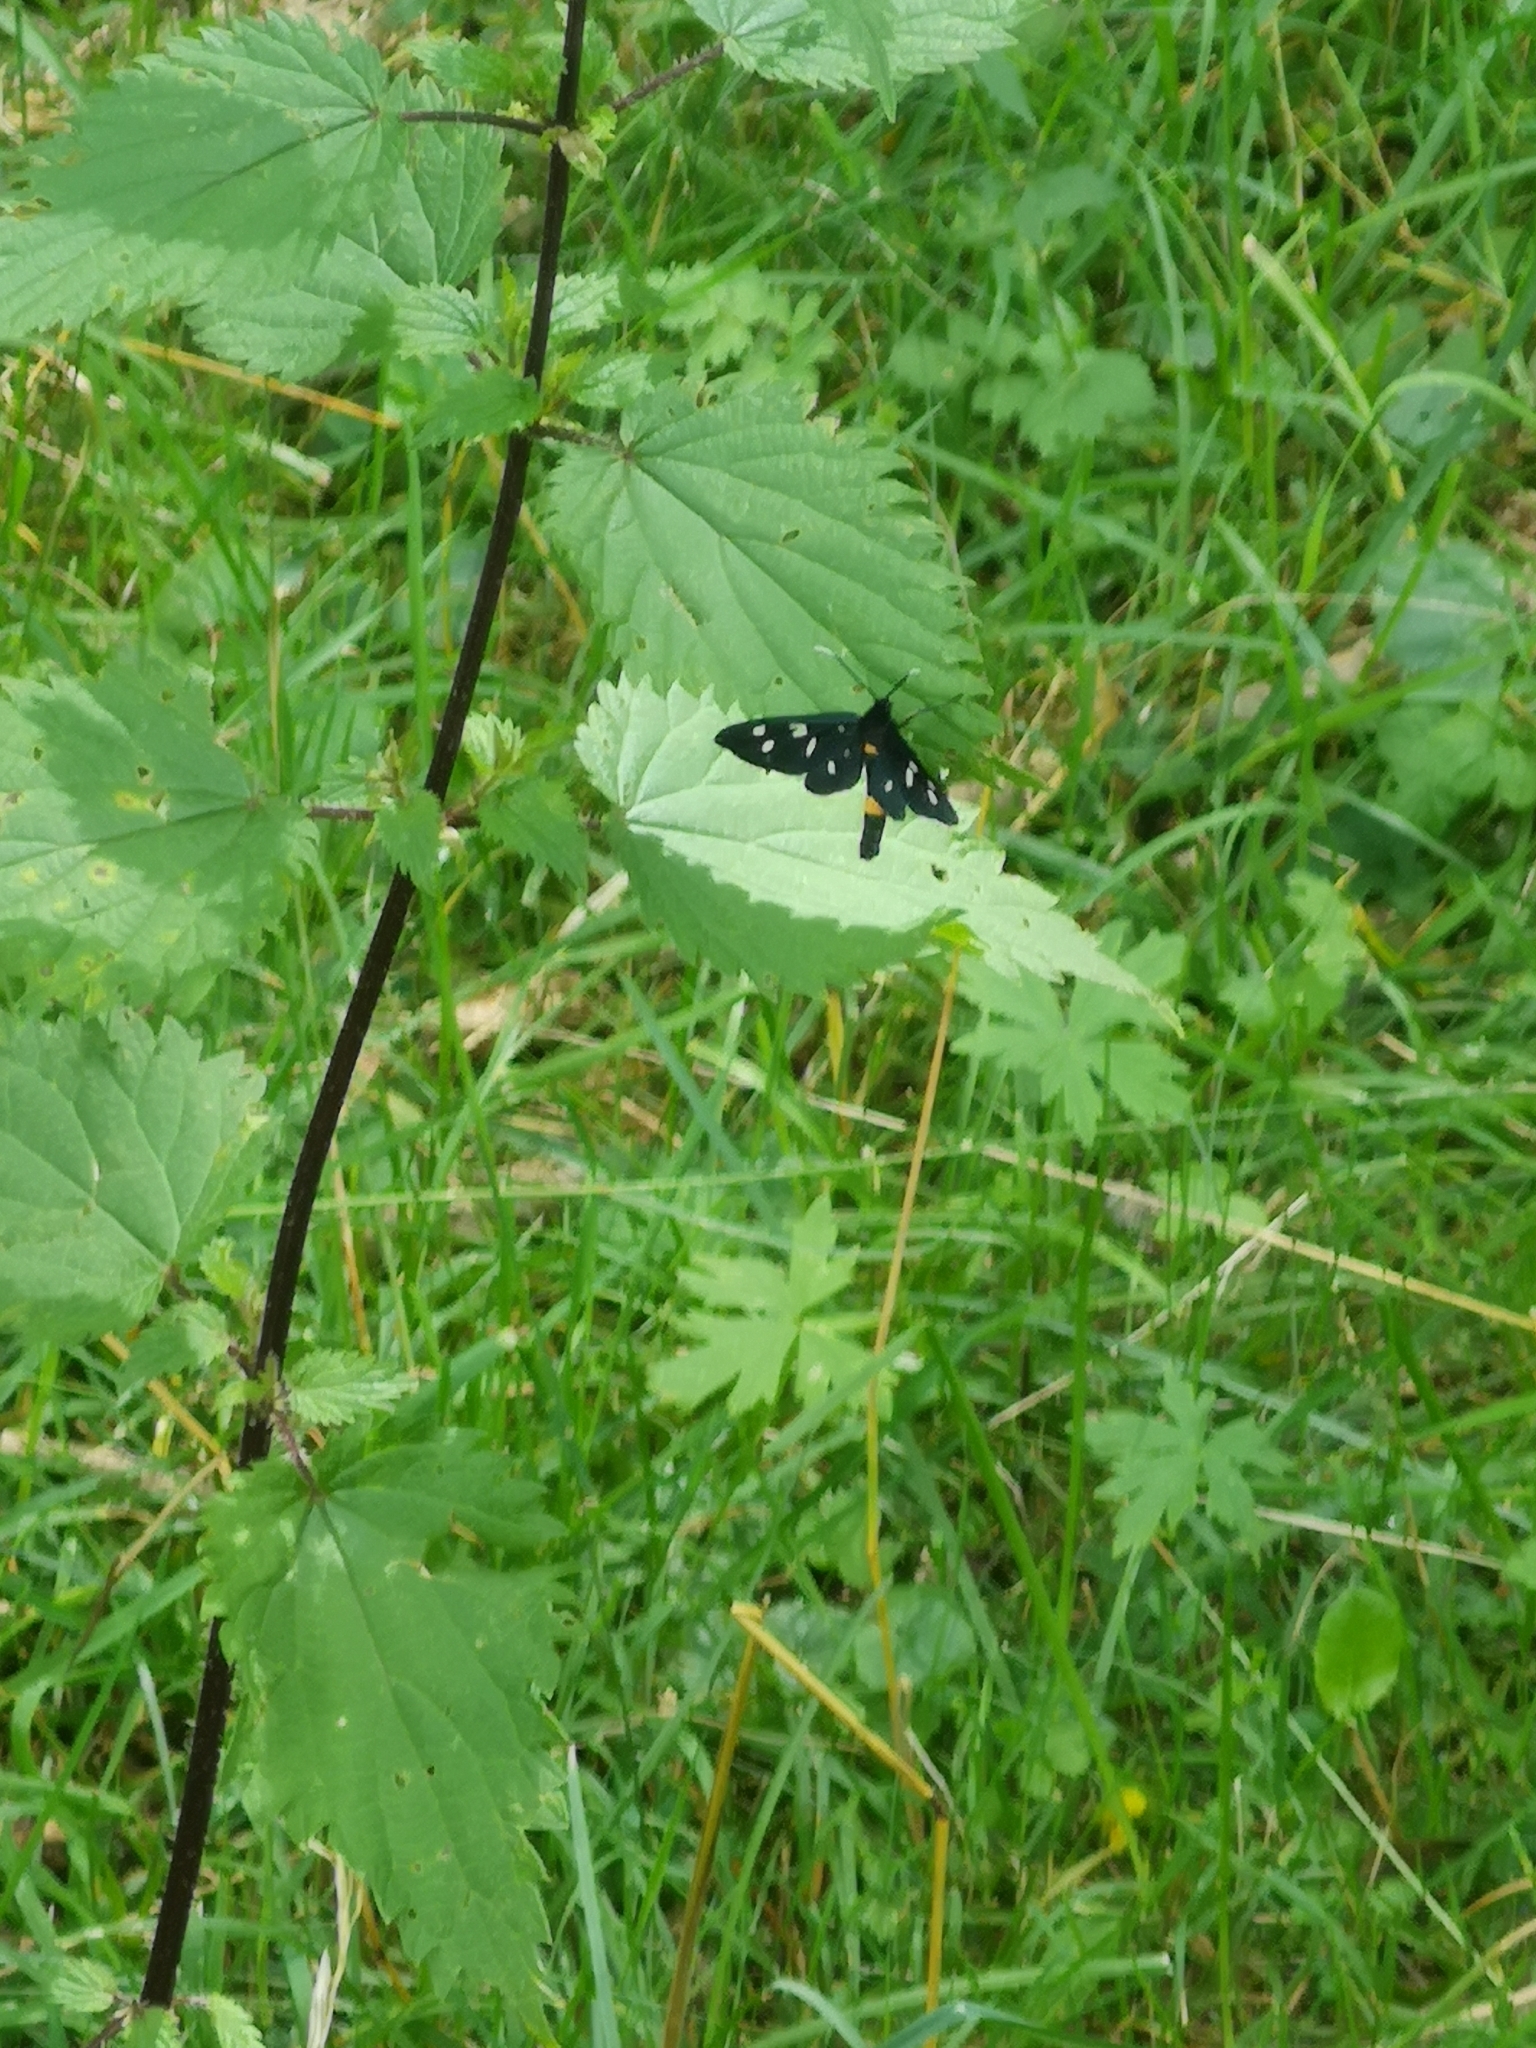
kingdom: Animalia
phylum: Arthropoda
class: Insecta
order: Lepidoptera
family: Erebidae
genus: Amata
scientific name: Amata phegea
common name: Nine-spotted
